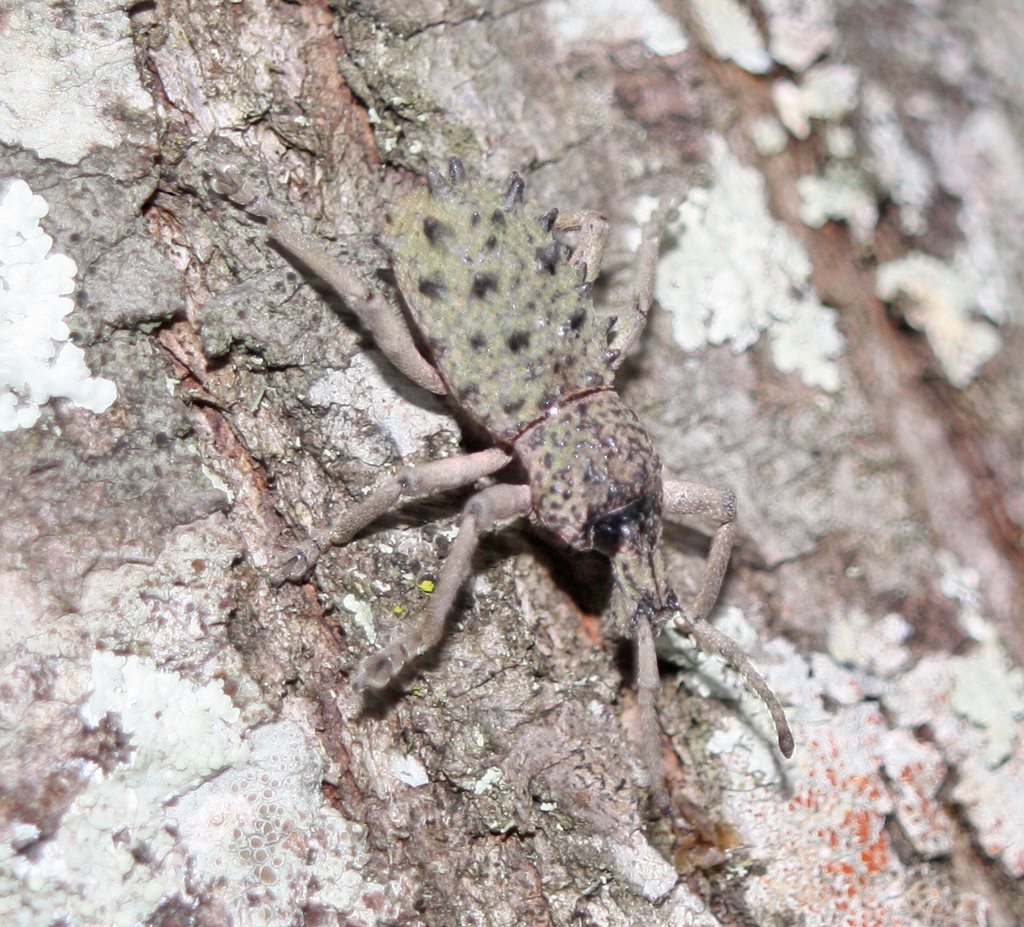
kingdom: Animalia
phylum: Arthropoda
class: Insecta
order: Coleoptera
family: Curculionidae
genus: Leptopius
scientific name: Leptopius baileyi
